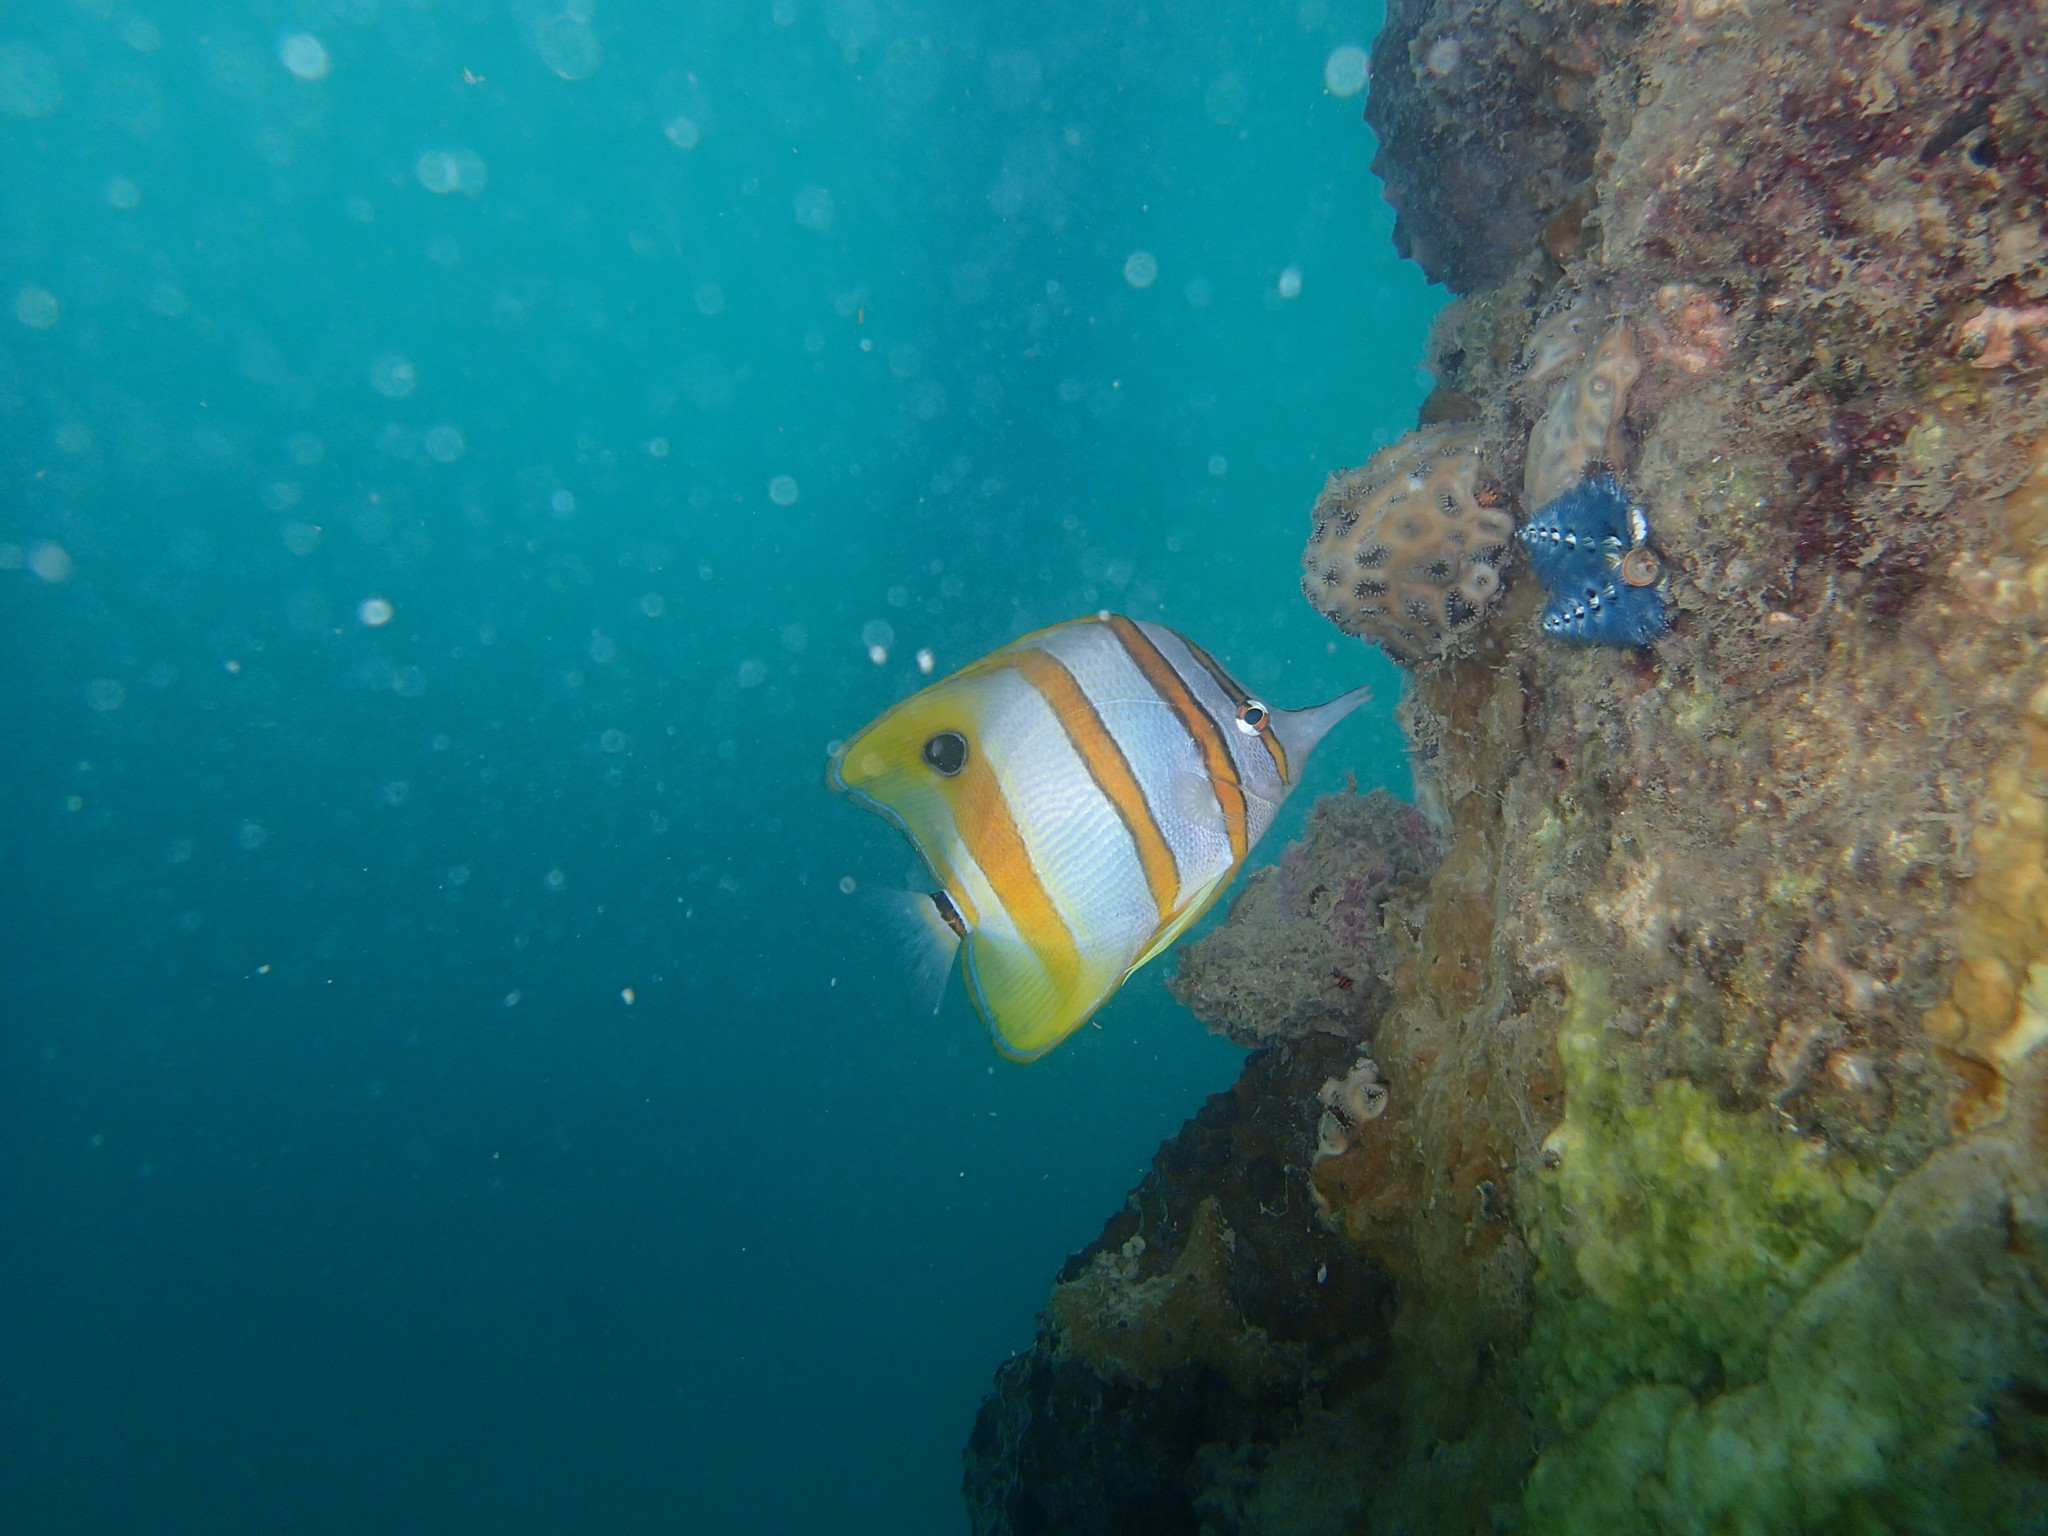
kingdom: Animalia
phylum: Chordata
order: Perciformes
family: Chaetodontidae
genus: Chelmon
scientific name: Chelmon rostratus
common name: Beaked butterflyfish
